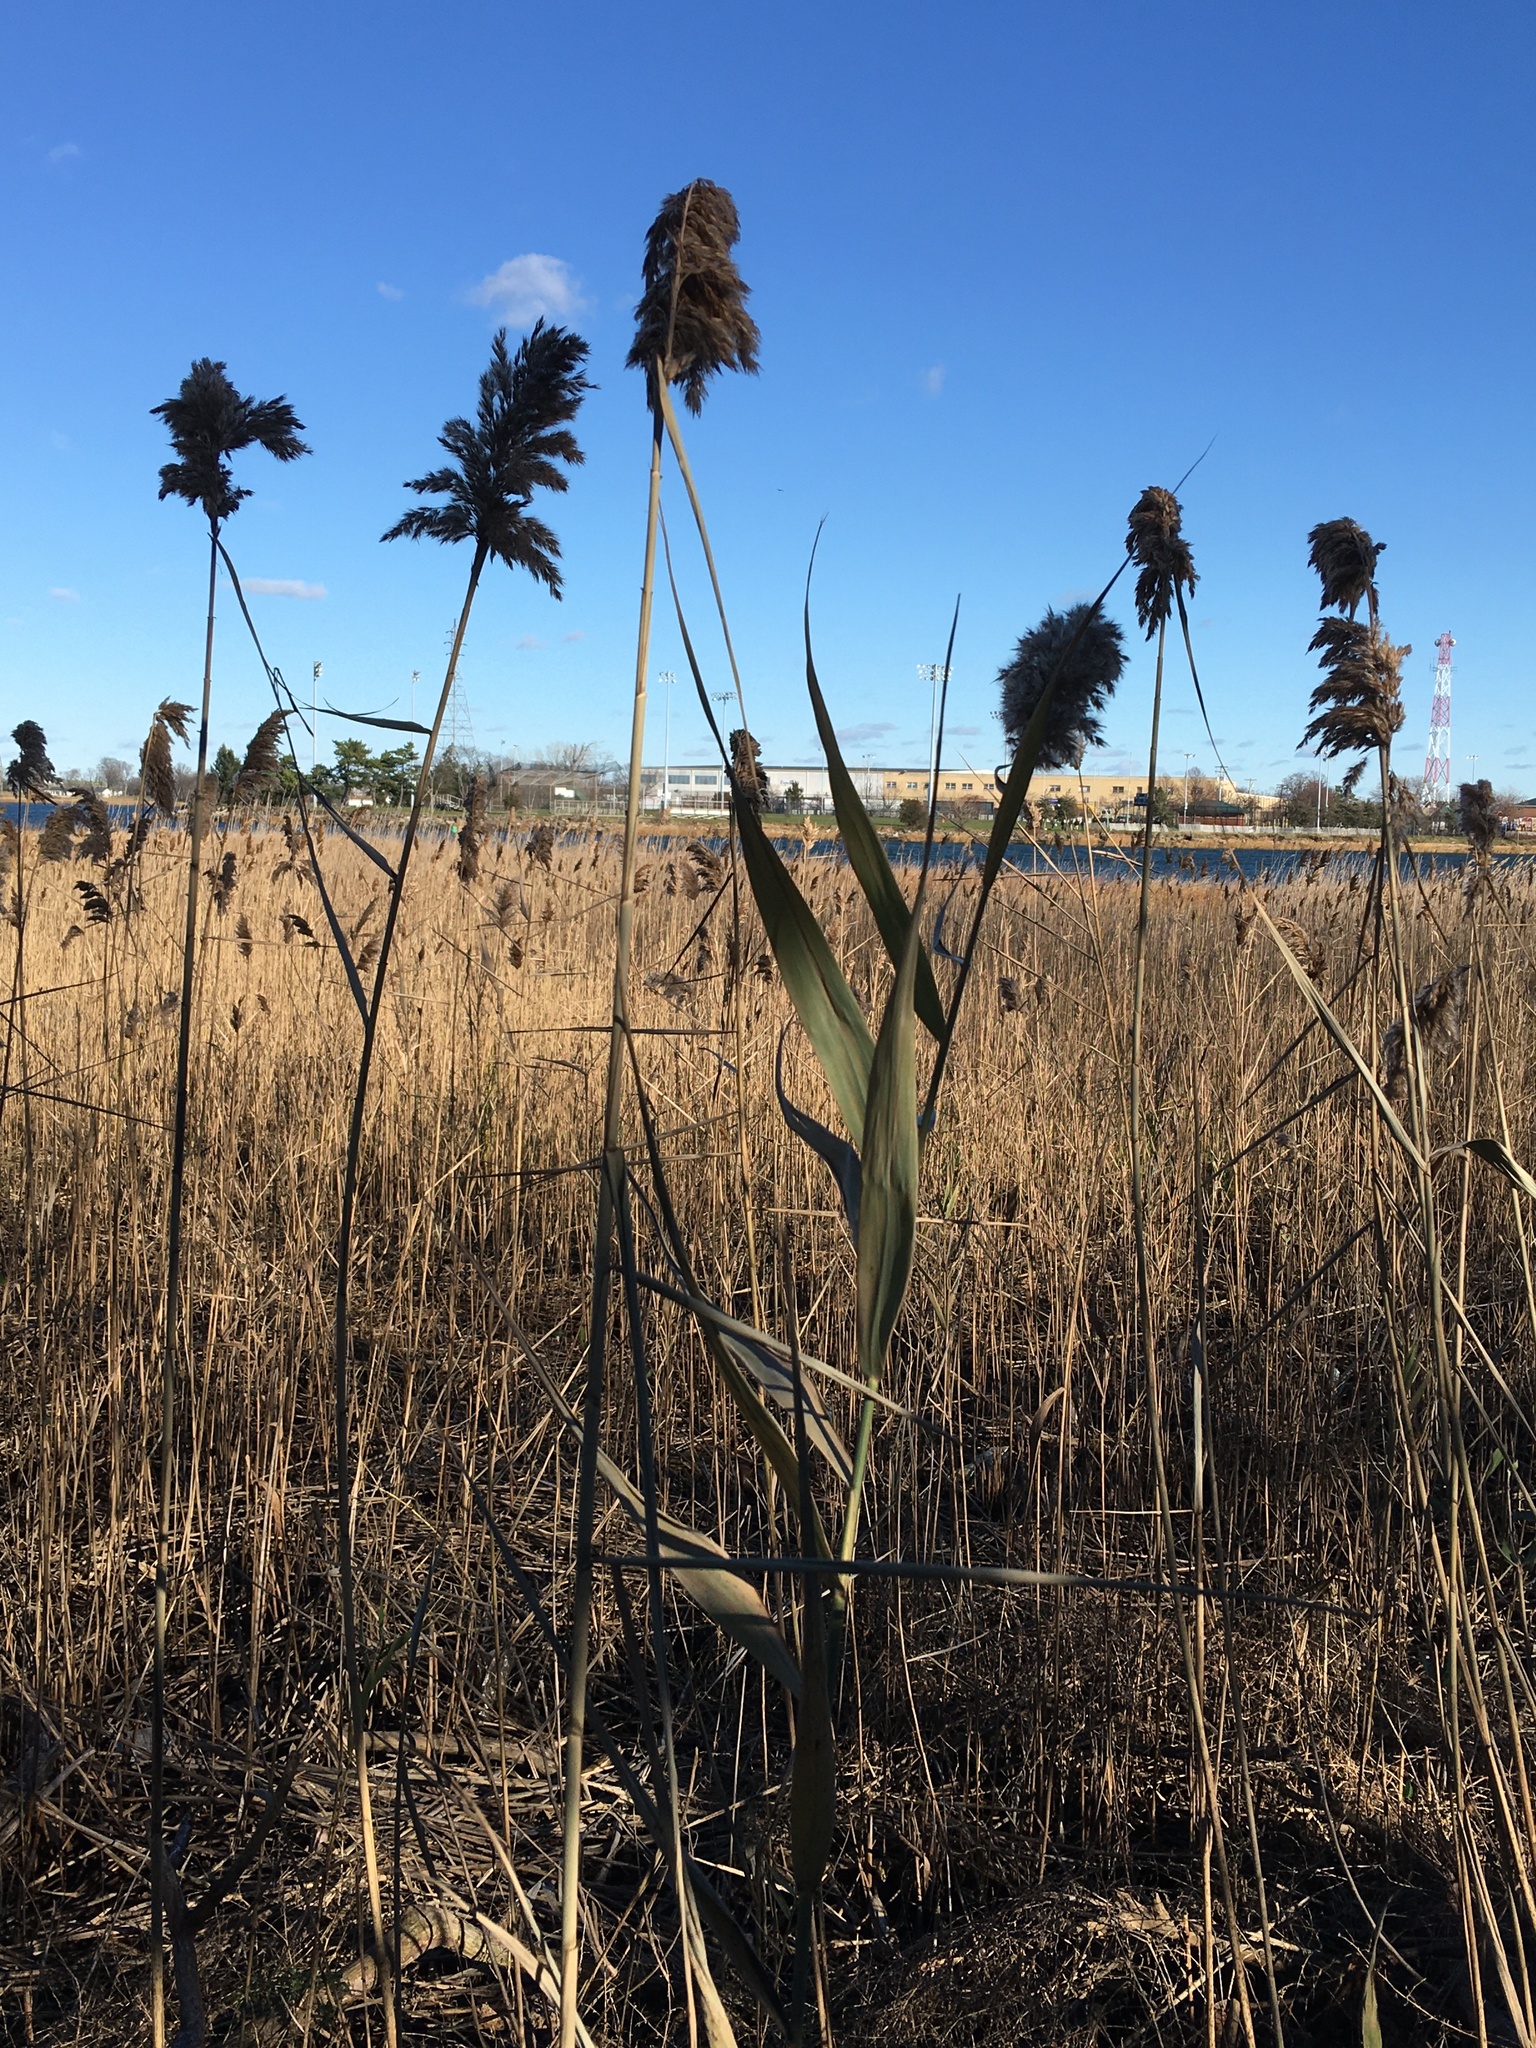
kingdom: Plantae
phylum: Tracheophyta
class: Liliopsida
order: Poales
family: Poaceae
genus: Phragmites
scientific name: Phragmites australis
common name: Common reed
